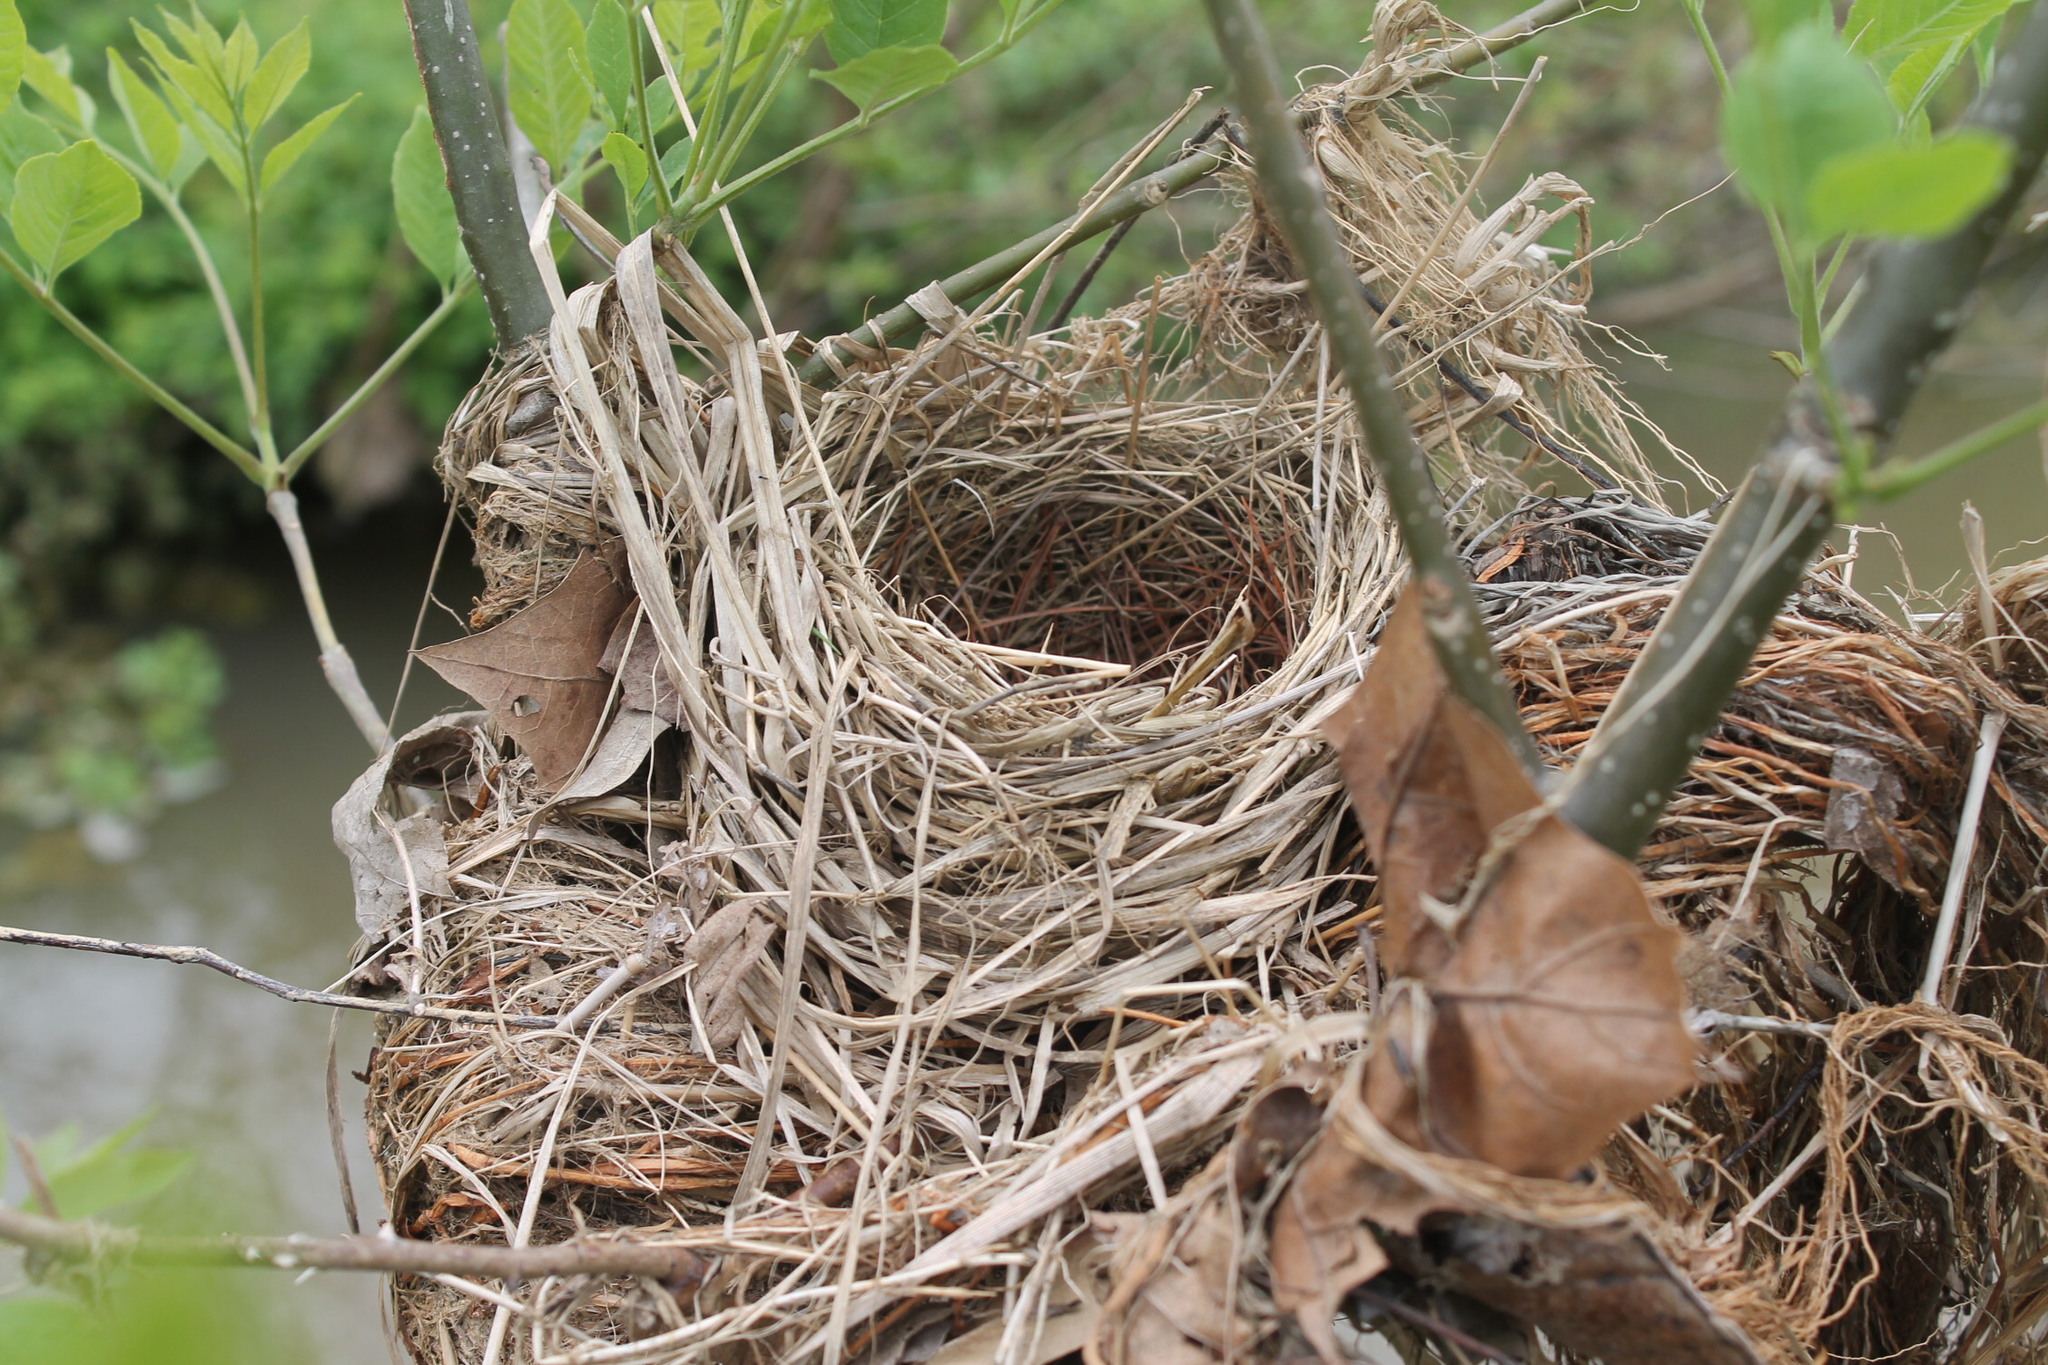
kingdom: Animalia
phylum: Chordata
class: Aves
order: Passeriformes
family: Icteridae
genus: Agelaius
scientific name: Agelaius phoeniceus
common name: Red-winged blackbird
